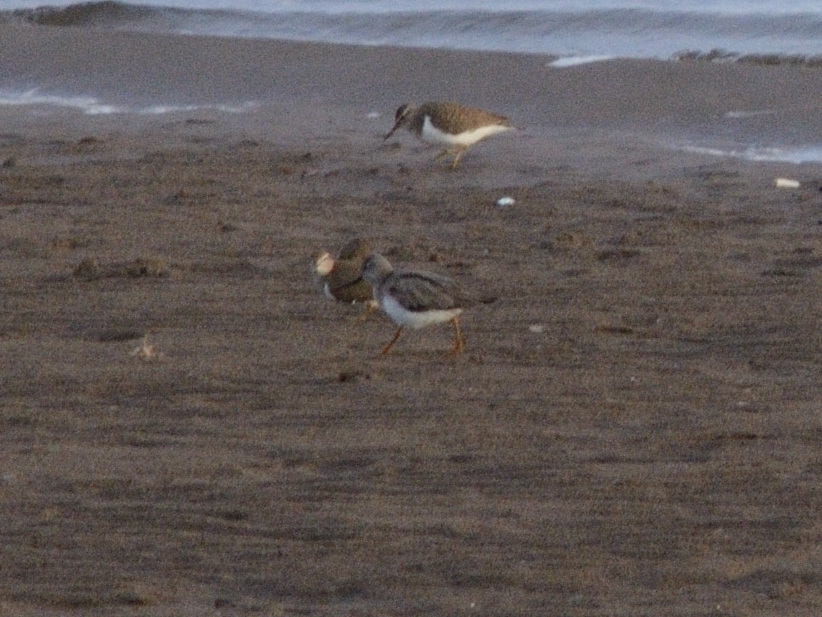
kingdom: Animalia
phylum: Chordata
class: Aves
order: Charadriiformes
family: Scolopacidae
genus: Xenus
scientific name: Xenus cinereus
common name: Terek sandpiper
